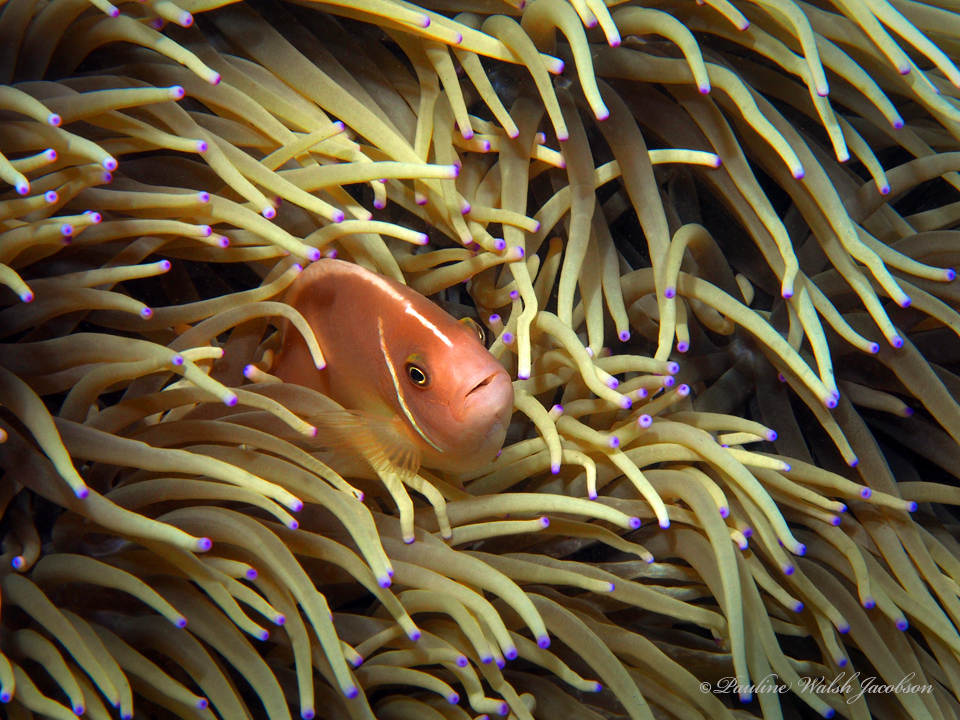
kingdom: Animalia
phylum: Chordata
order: Perciformes
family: Pomacentridae
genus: Amphiprion
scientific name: Amphiprion perideraion
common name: Pink anemonefish
